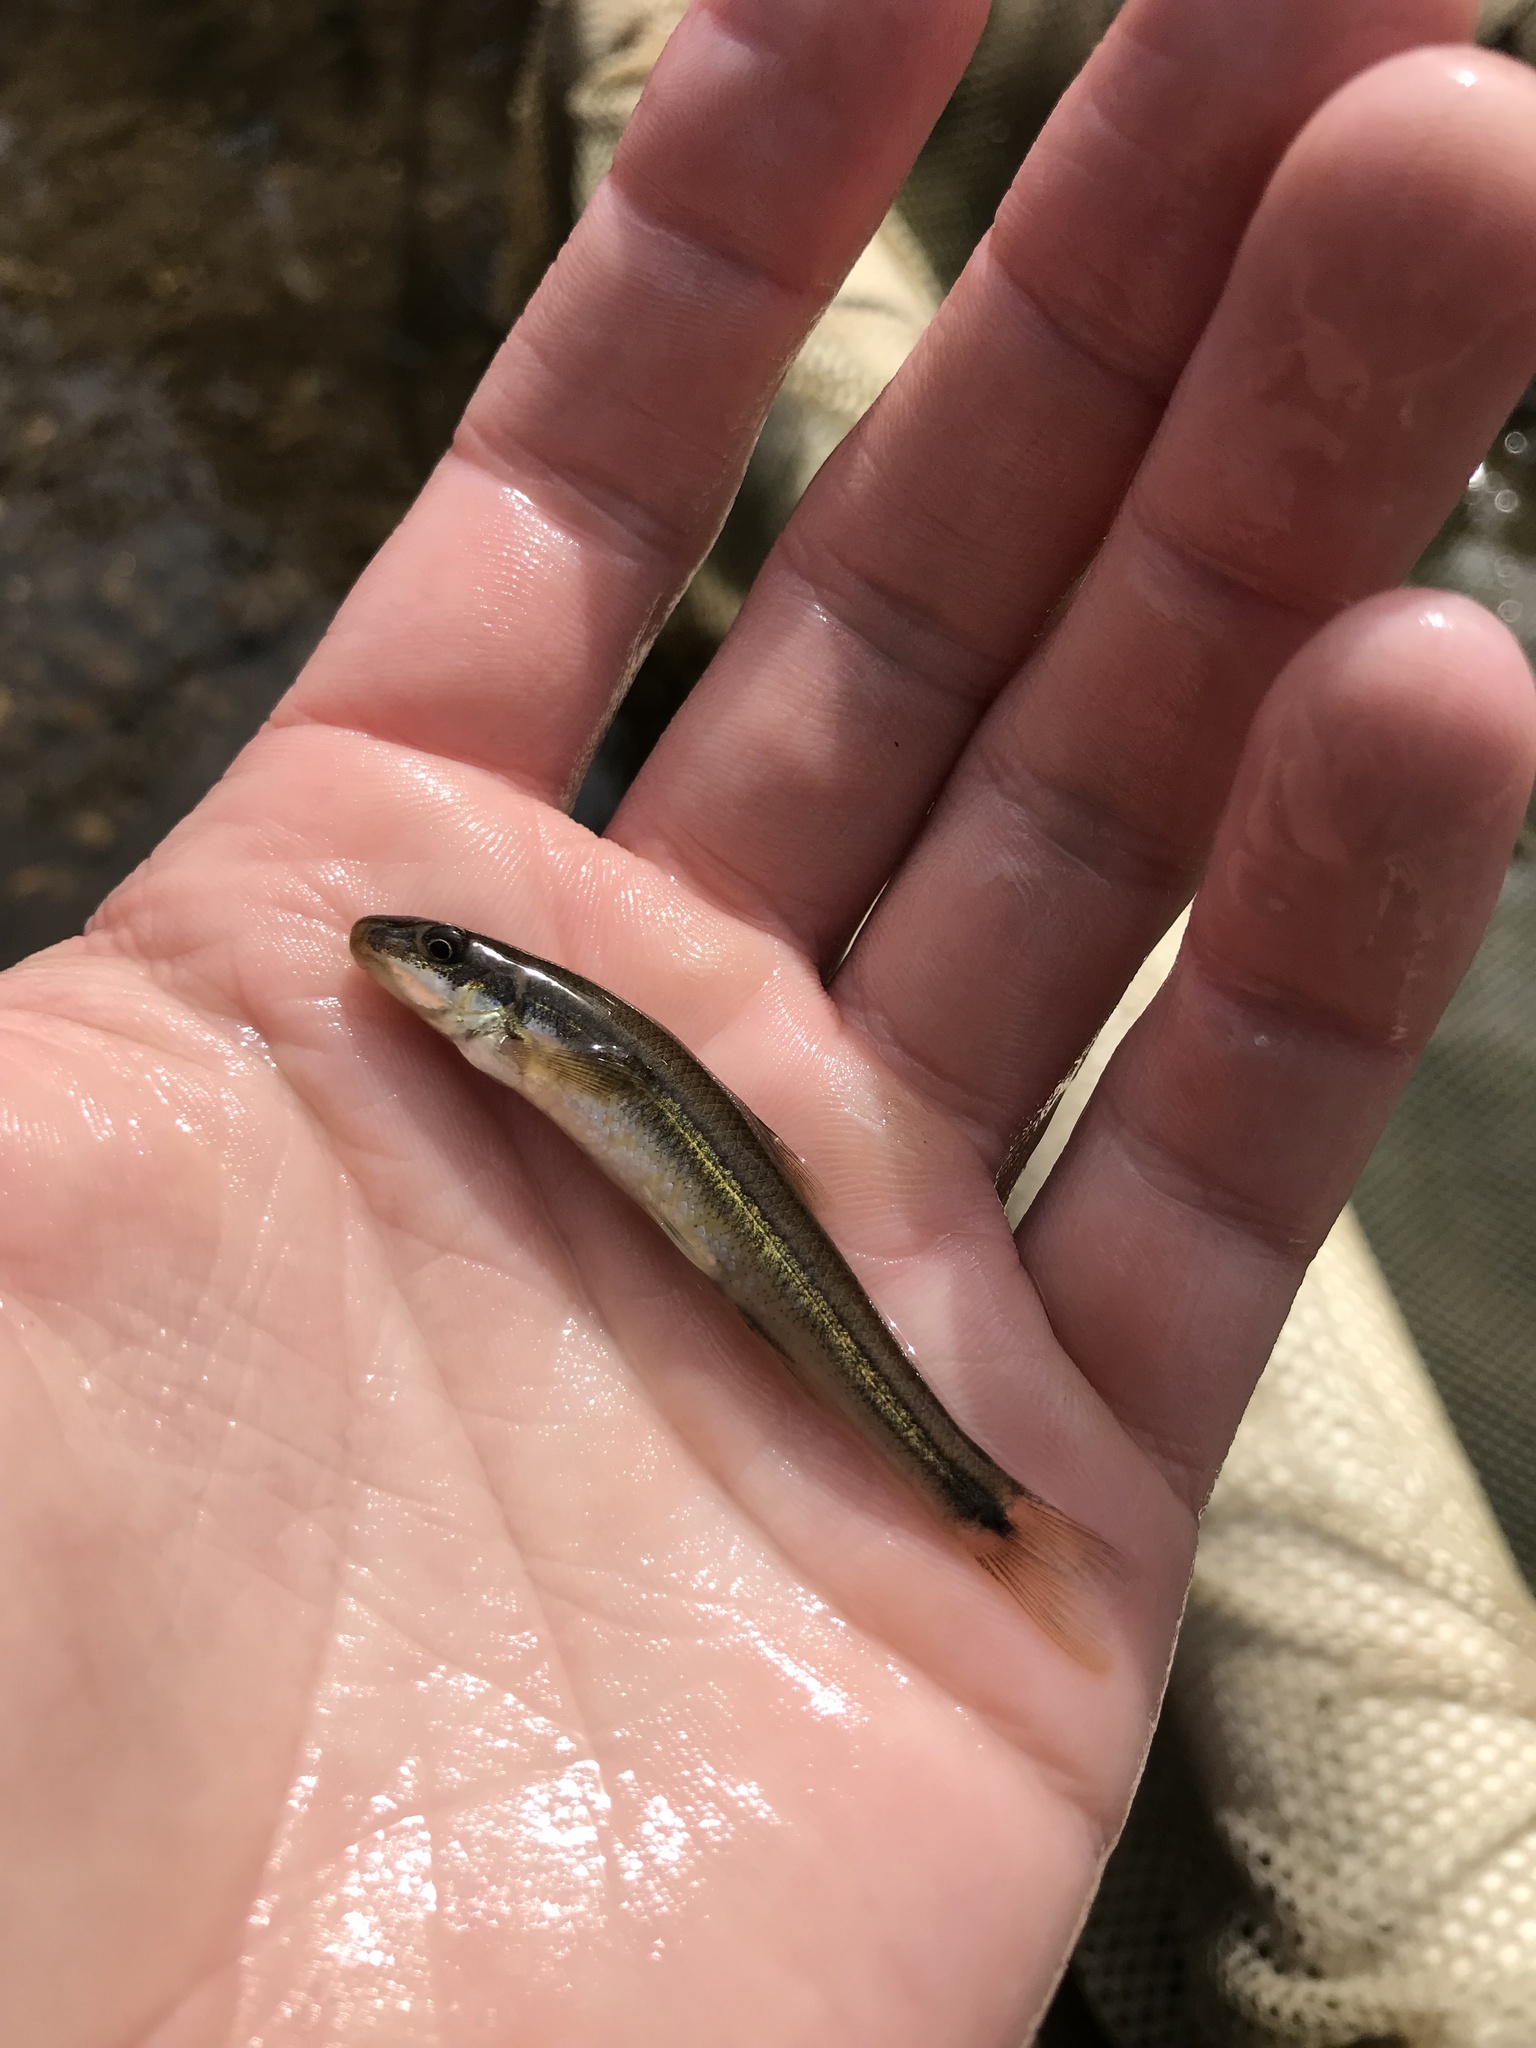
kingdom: Animalia
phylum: Chordata
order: Cypriniformes
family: Cyprinidae
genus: Phenacobius
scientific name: Phenacobius crassilabrum
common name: Fatlips minnow
